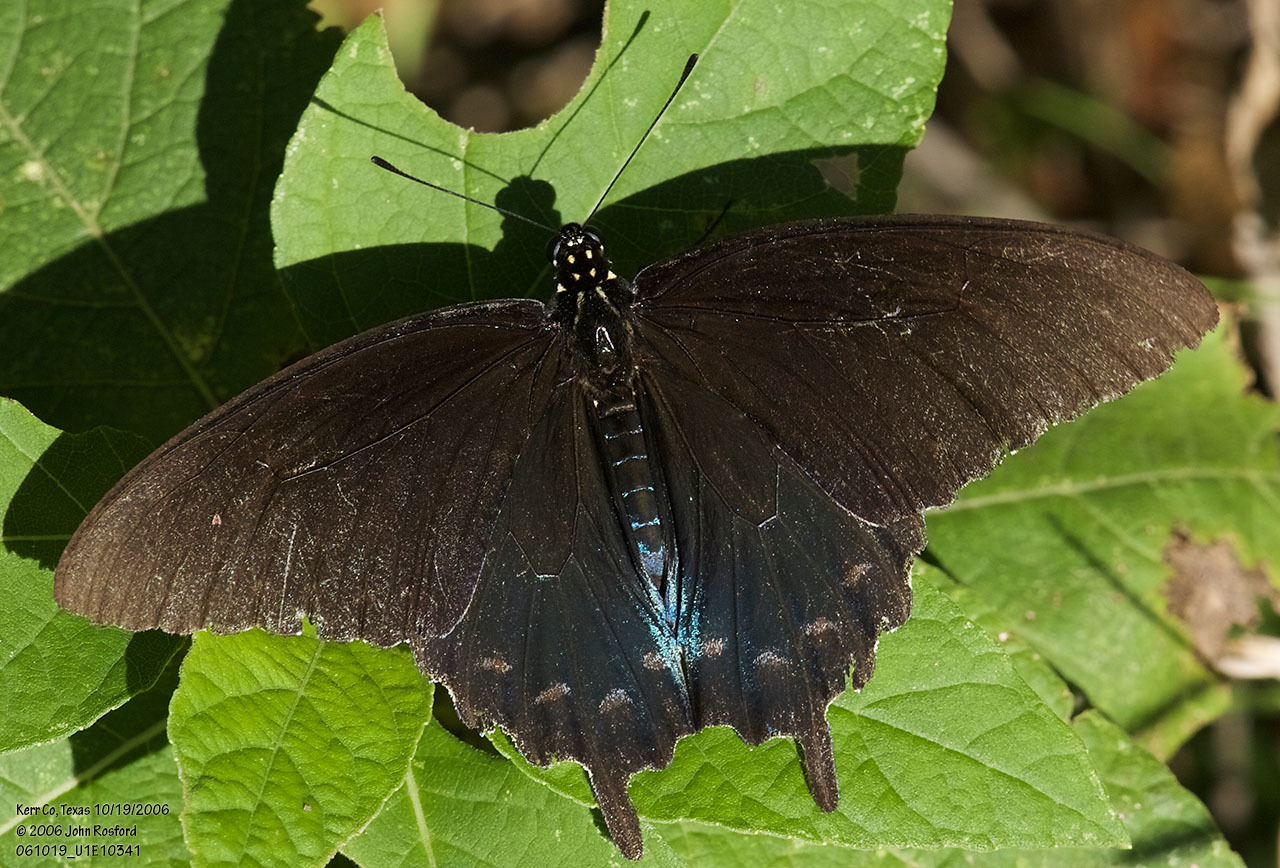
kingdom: Animalia
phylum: Arthropoda
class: Insecta
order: Lepidoptera
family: Papilionidae
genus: Battus
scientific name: Battus philenor
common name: Pipevine swallowtail
